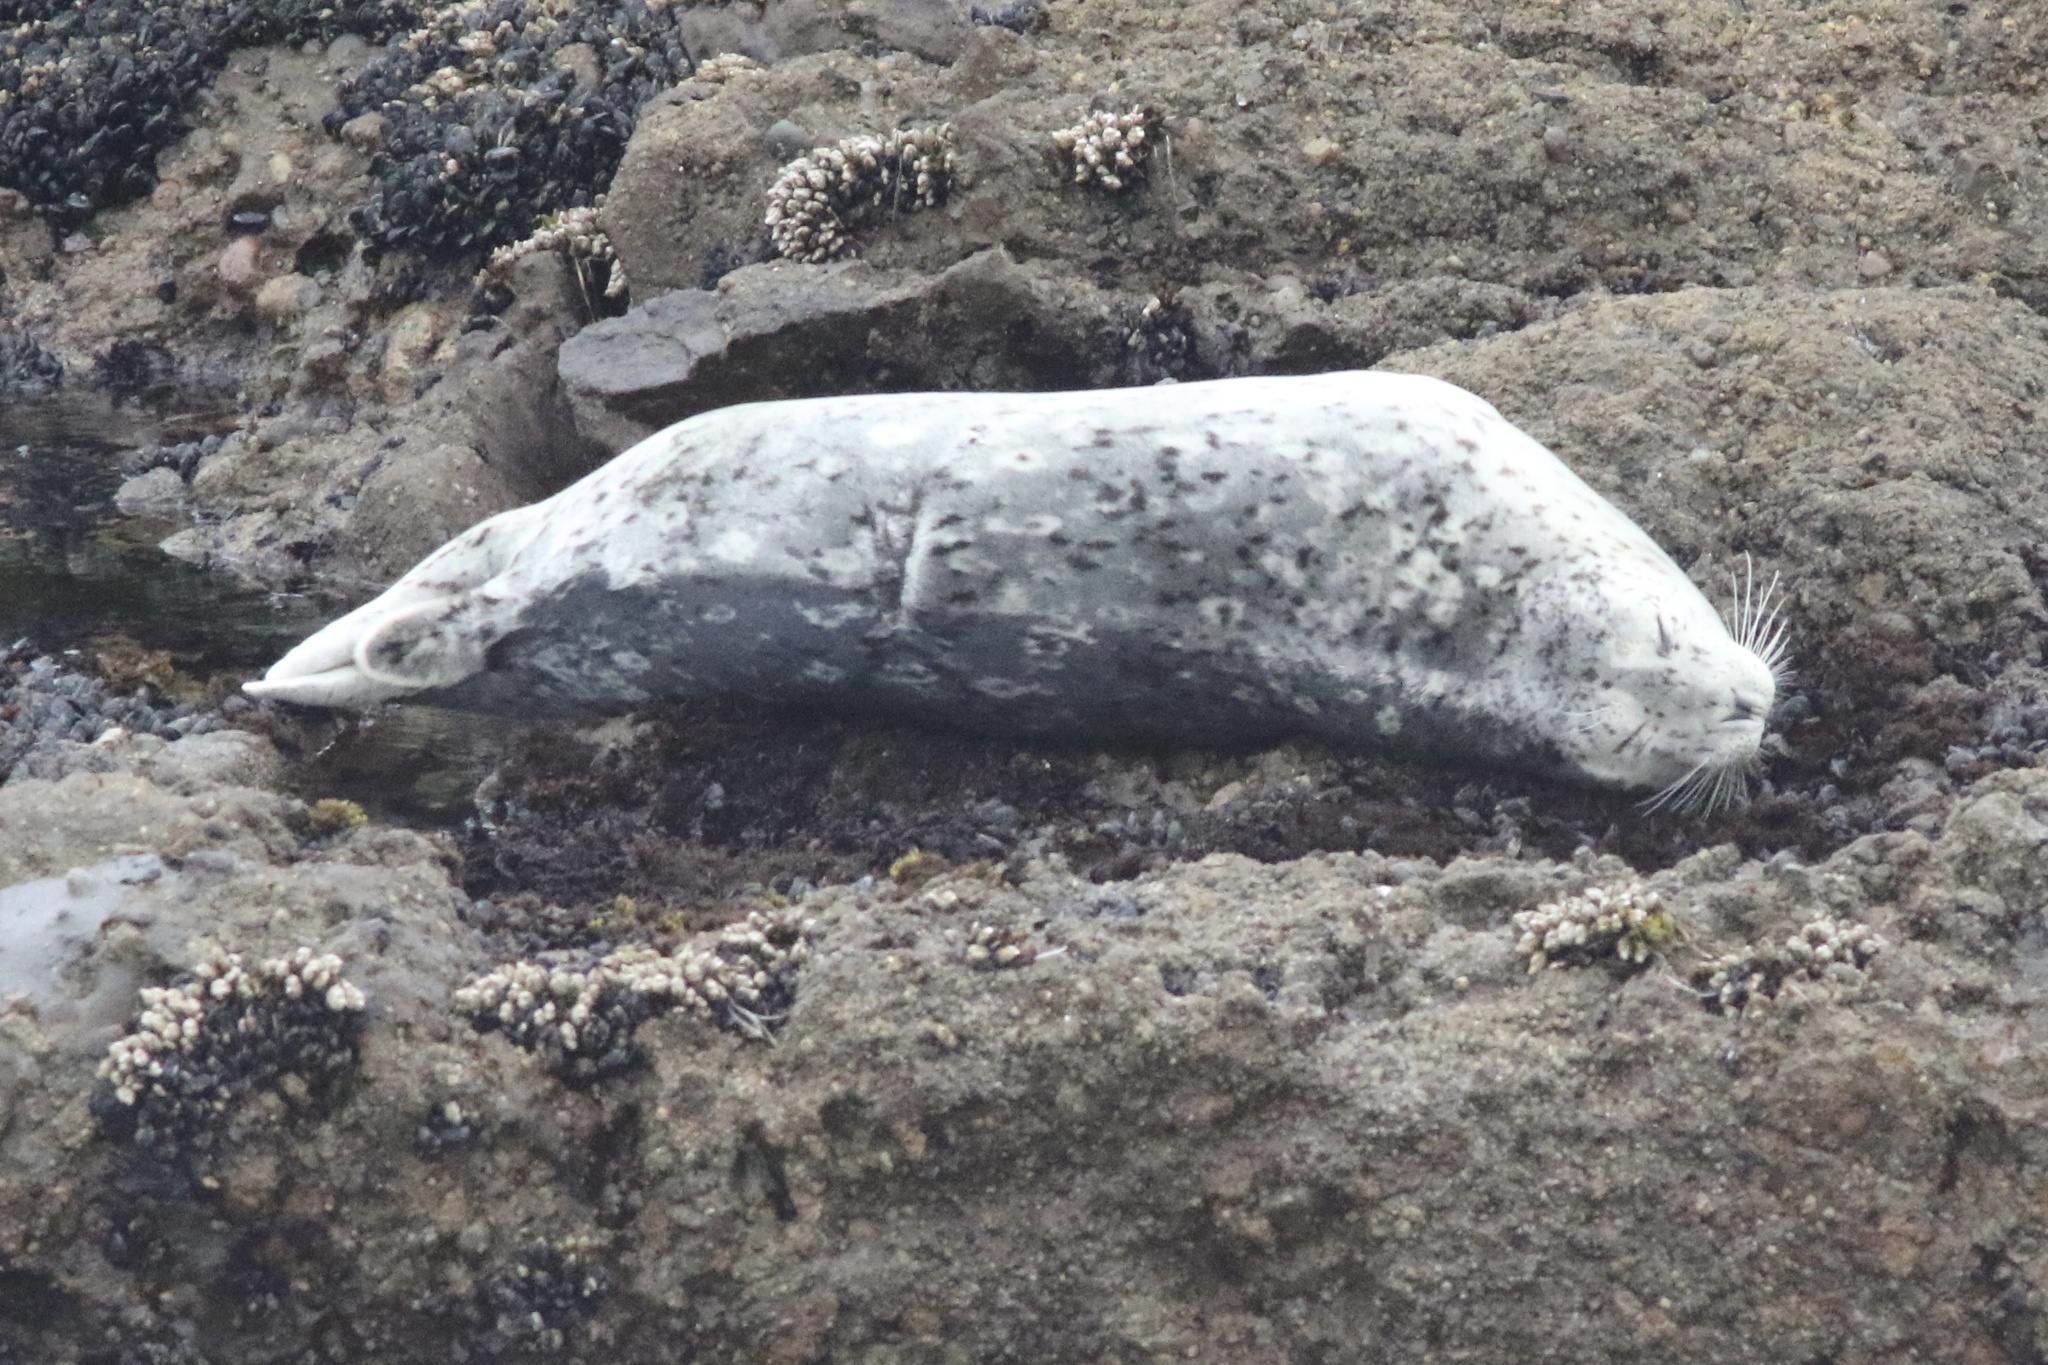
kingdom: Animalia
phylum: Chordata
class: Mammalia
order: Carnivora
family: Phocidae
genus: Phoca
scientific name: Phoca vitulina
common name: Harbor seal
